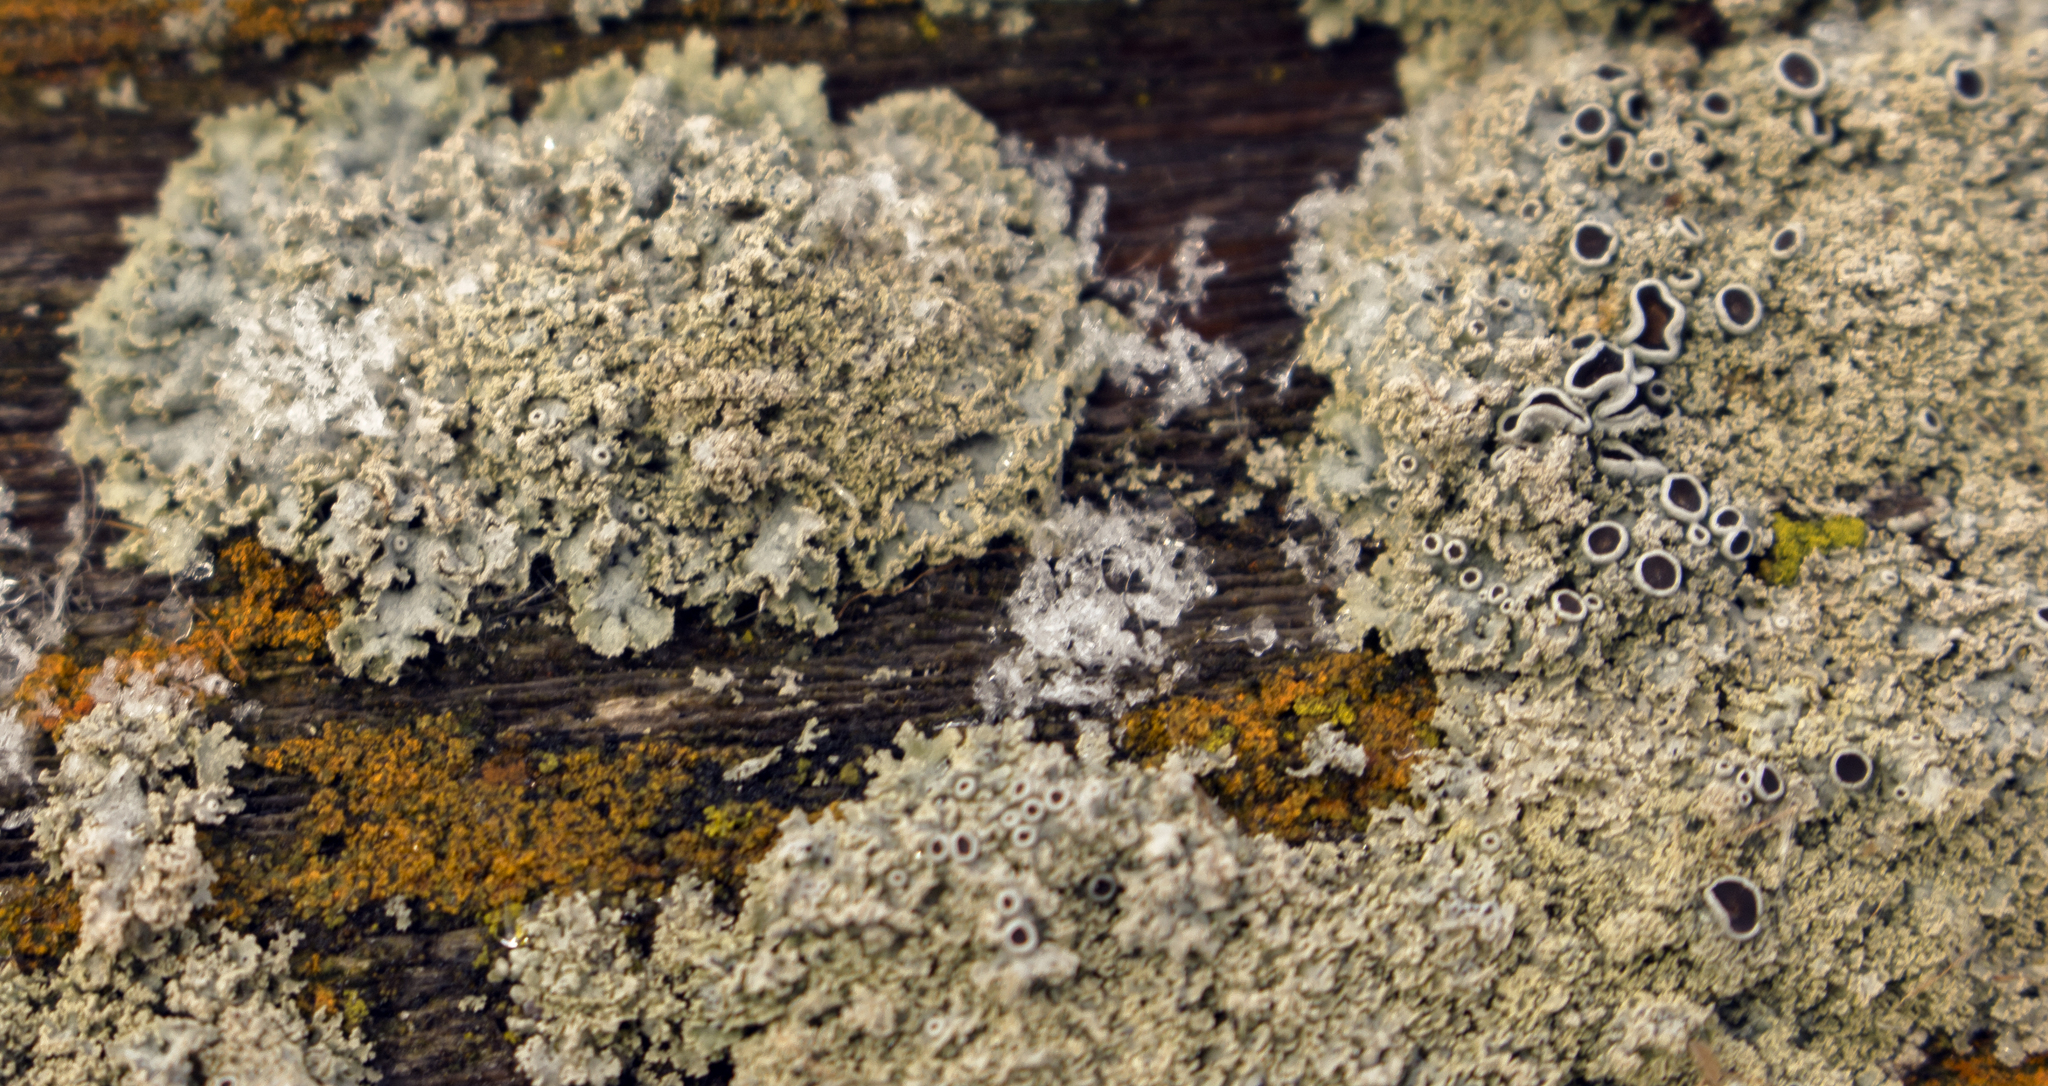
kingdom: Fungi
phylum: Ascomycota
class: Lecanoromycetes
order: Caliciales
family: Physciaceae
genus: Physcia
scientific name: Physcia millegrana
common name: Rosette lichen
